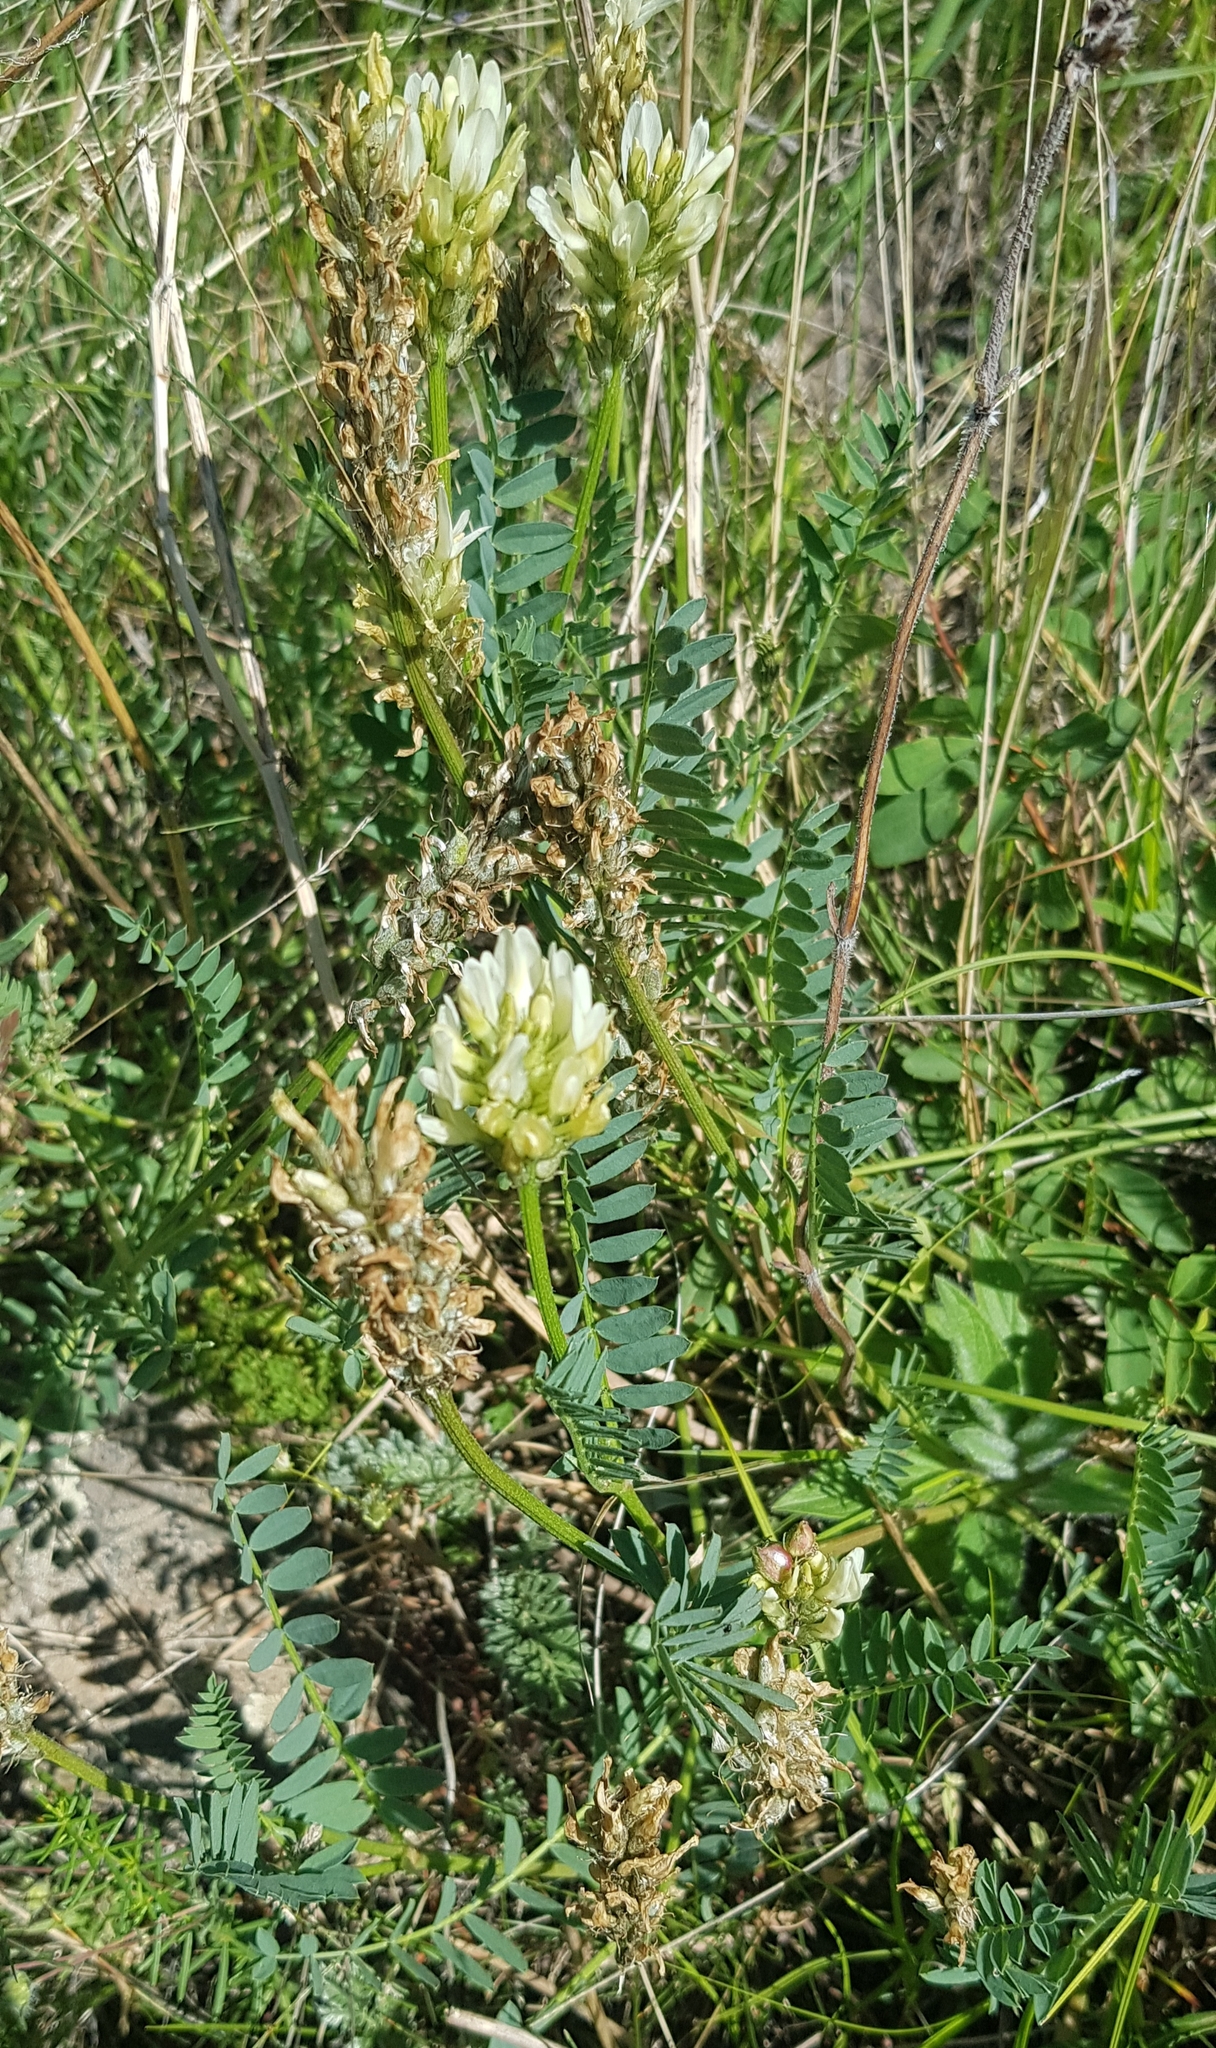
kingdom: Plantae
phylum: Tracheophyta
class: Magnoliopsida
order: Fabales
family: Fabaceae
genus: Astragalus
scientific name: Astragalus laxmannii
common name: Laxmann's milk-vetch
